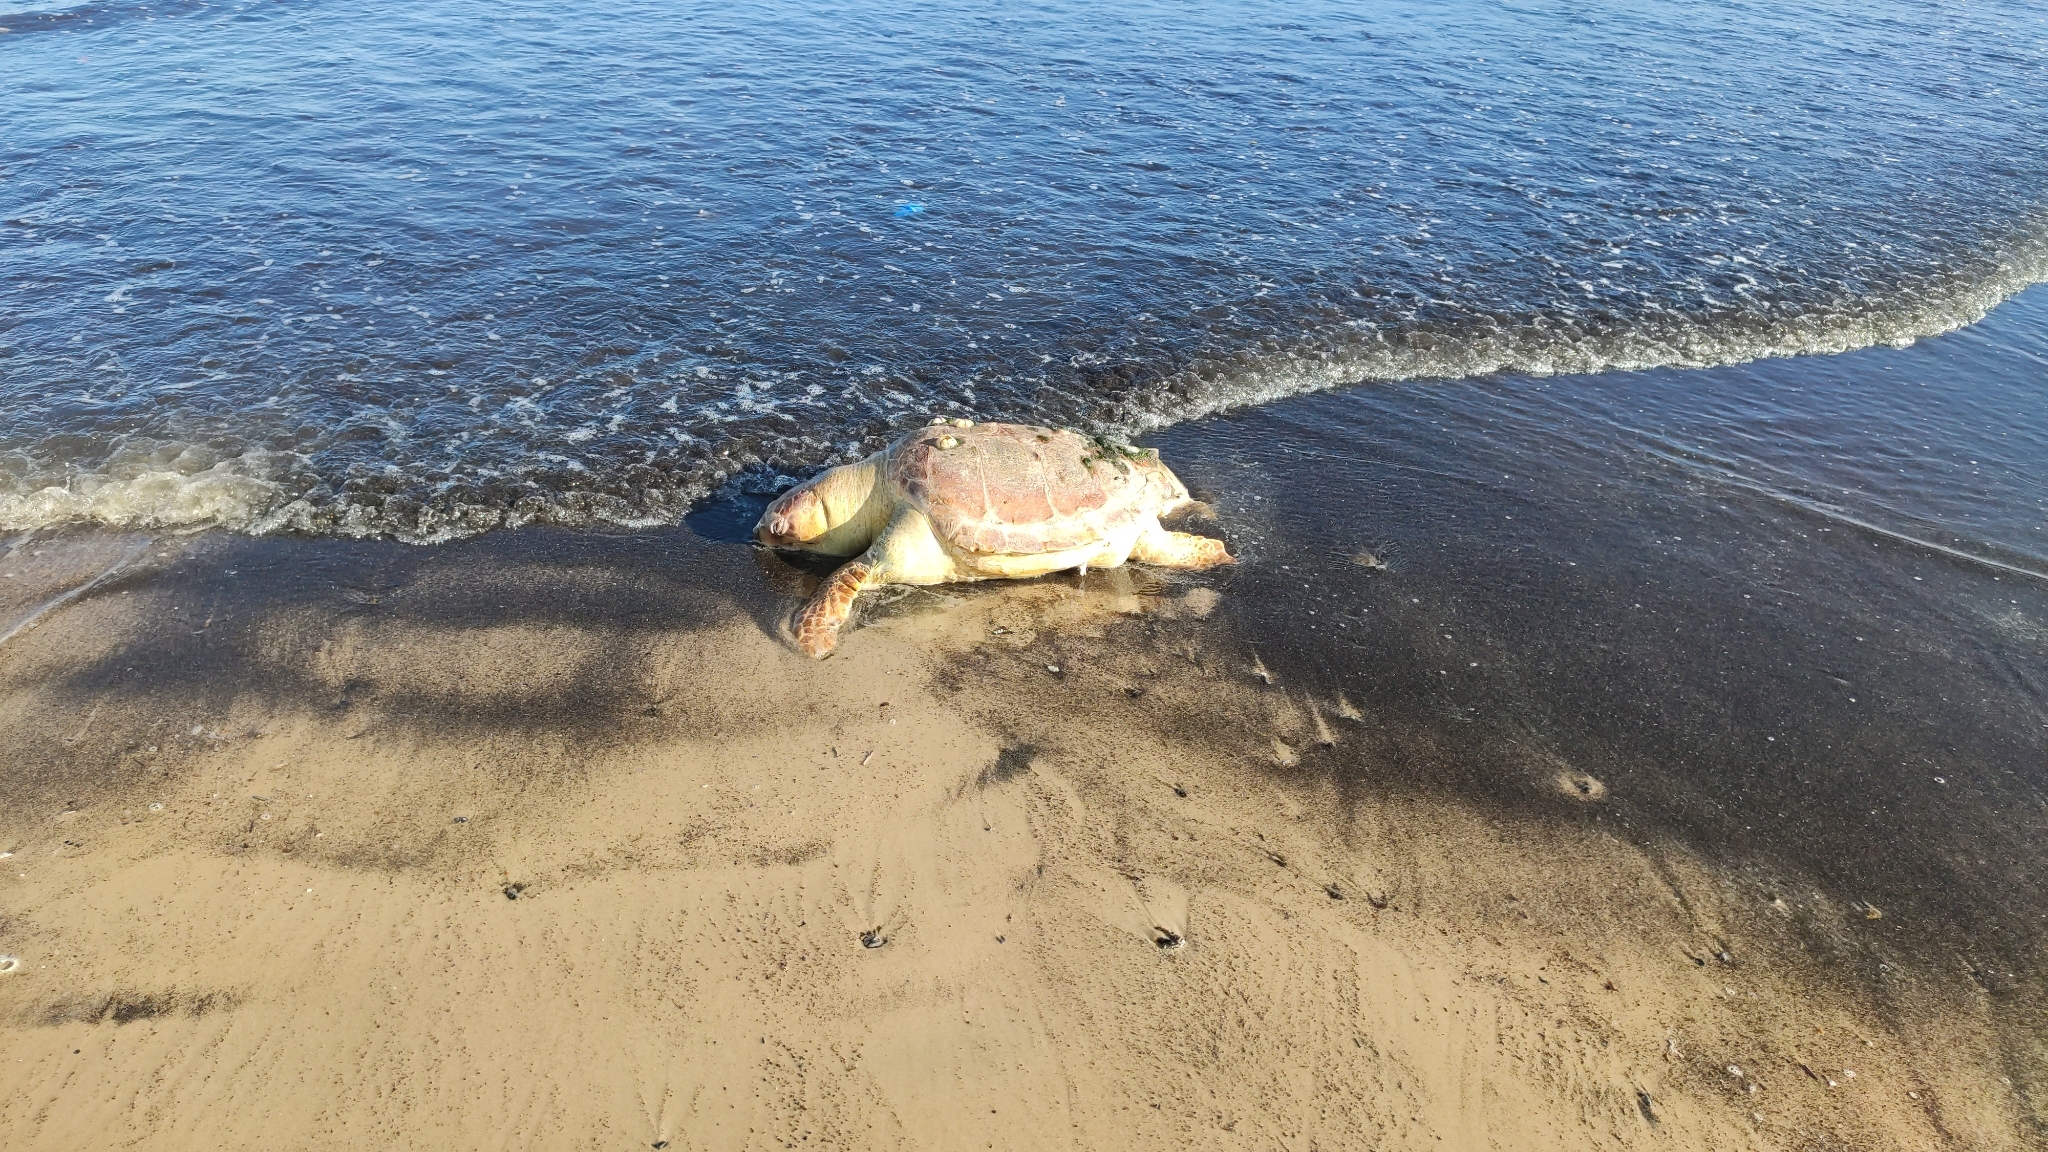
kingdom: Animalia
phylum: Chordata
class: Testudines
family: Cheloniidae
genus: Caretta
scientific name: Caretta caretta
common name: Loggerhead sea turtle
